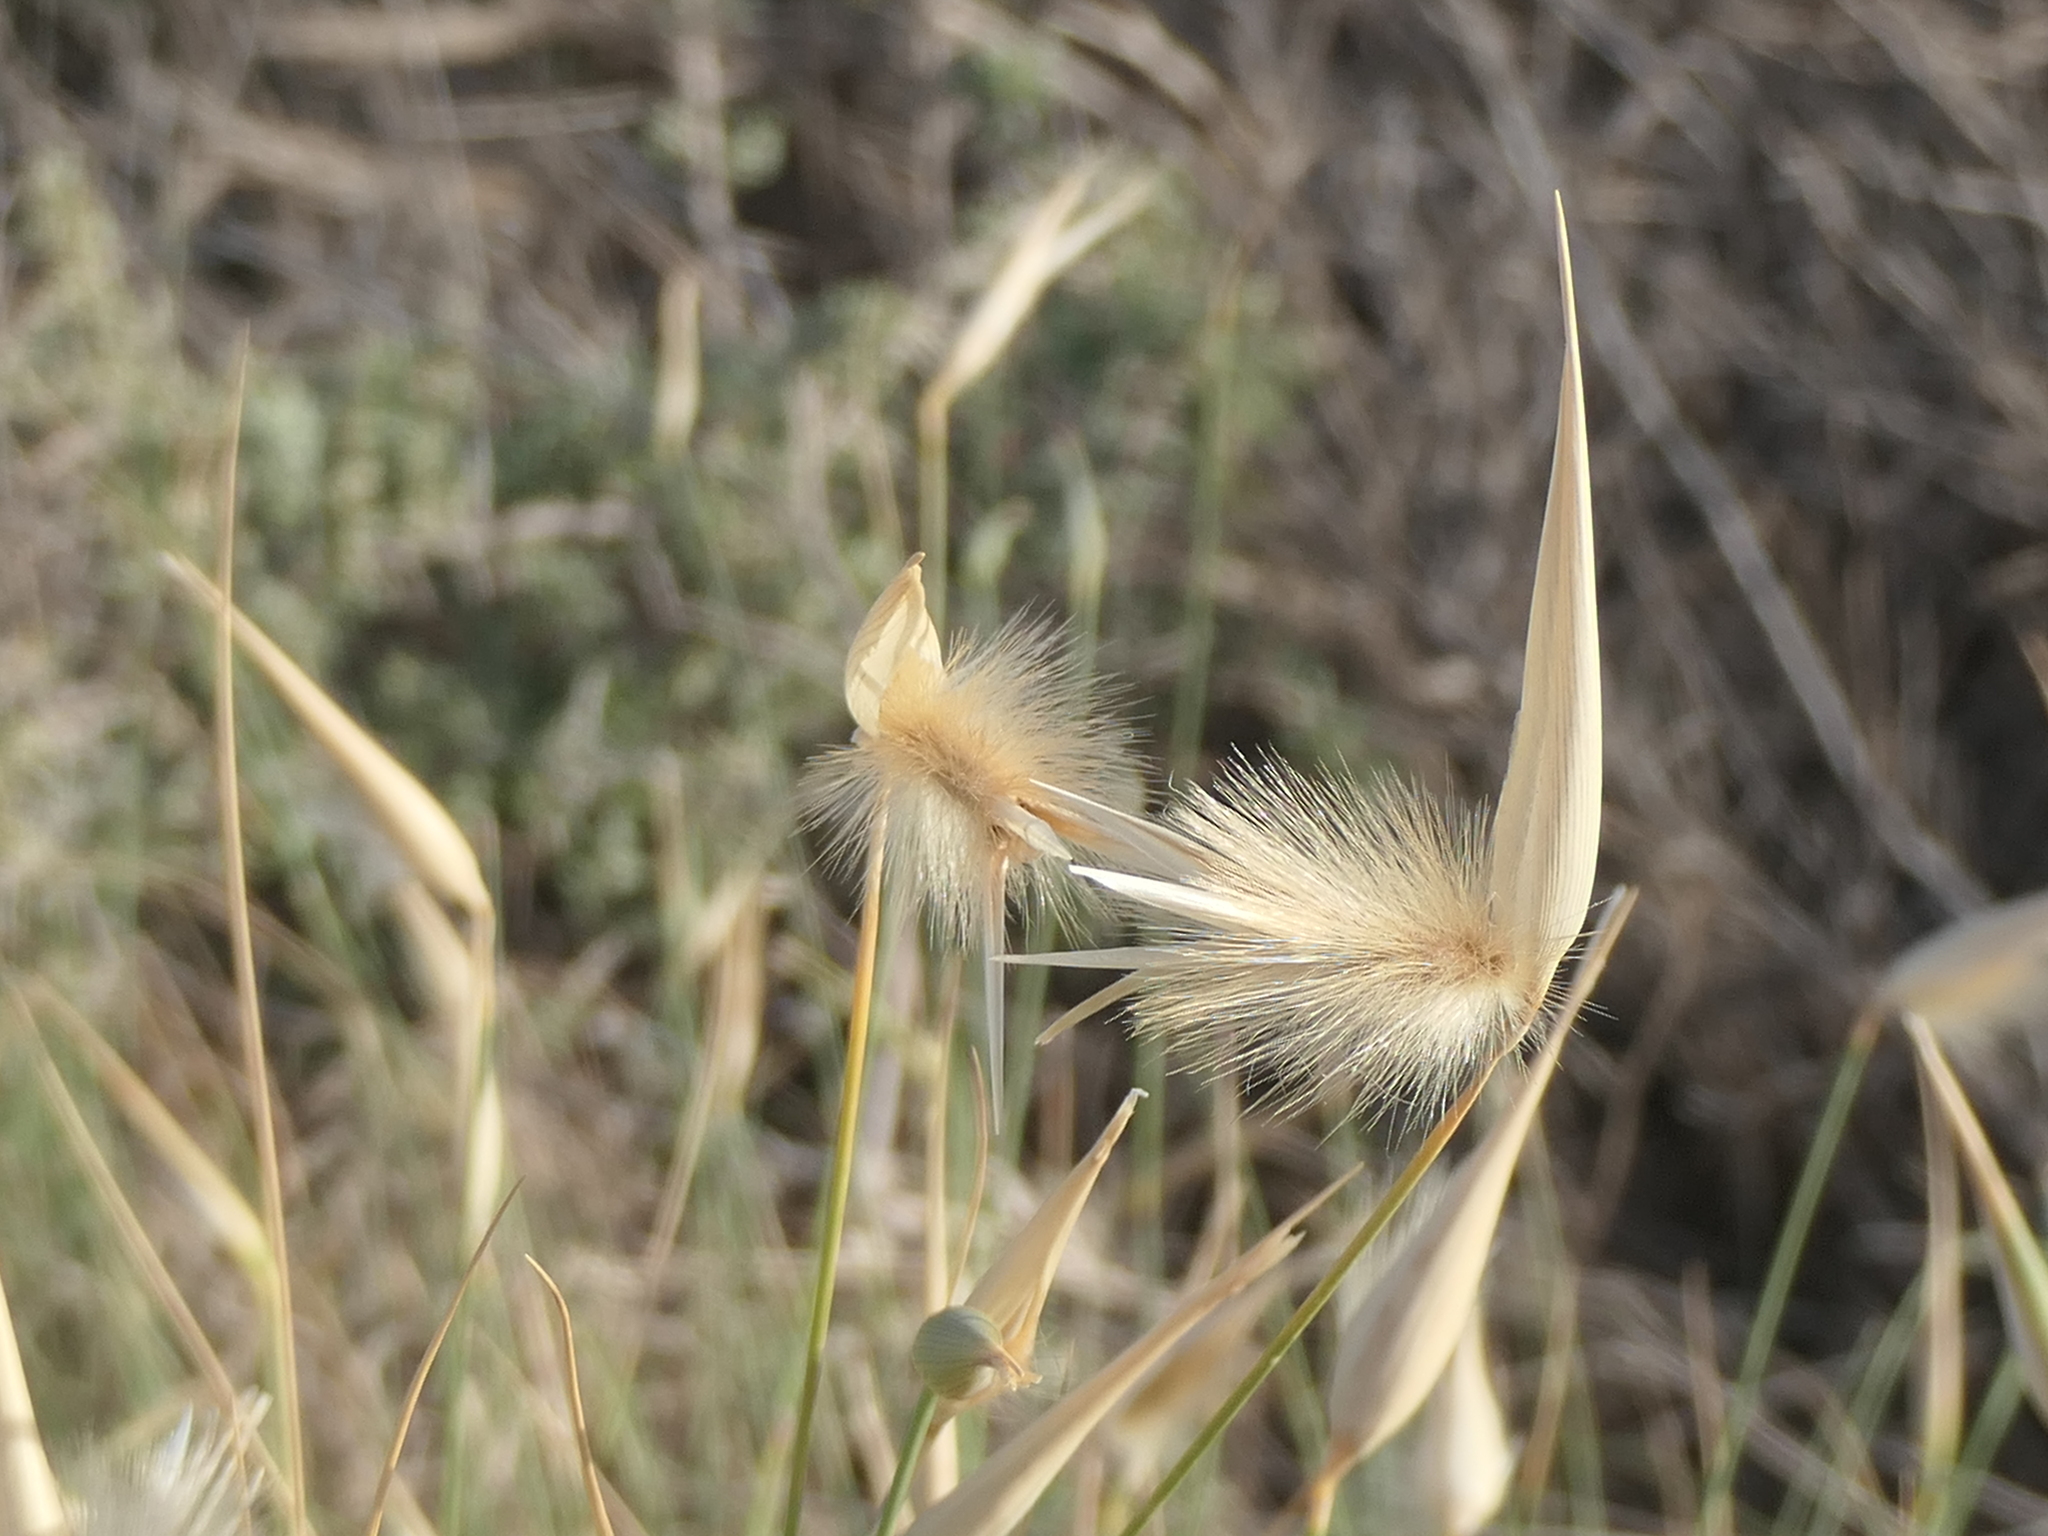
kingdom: Plantae
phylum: Tracheophyta
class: Liliopsida
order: Poales
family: Poaceae
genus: Lygeum
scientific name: Lygeum spartum
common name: Albardine
